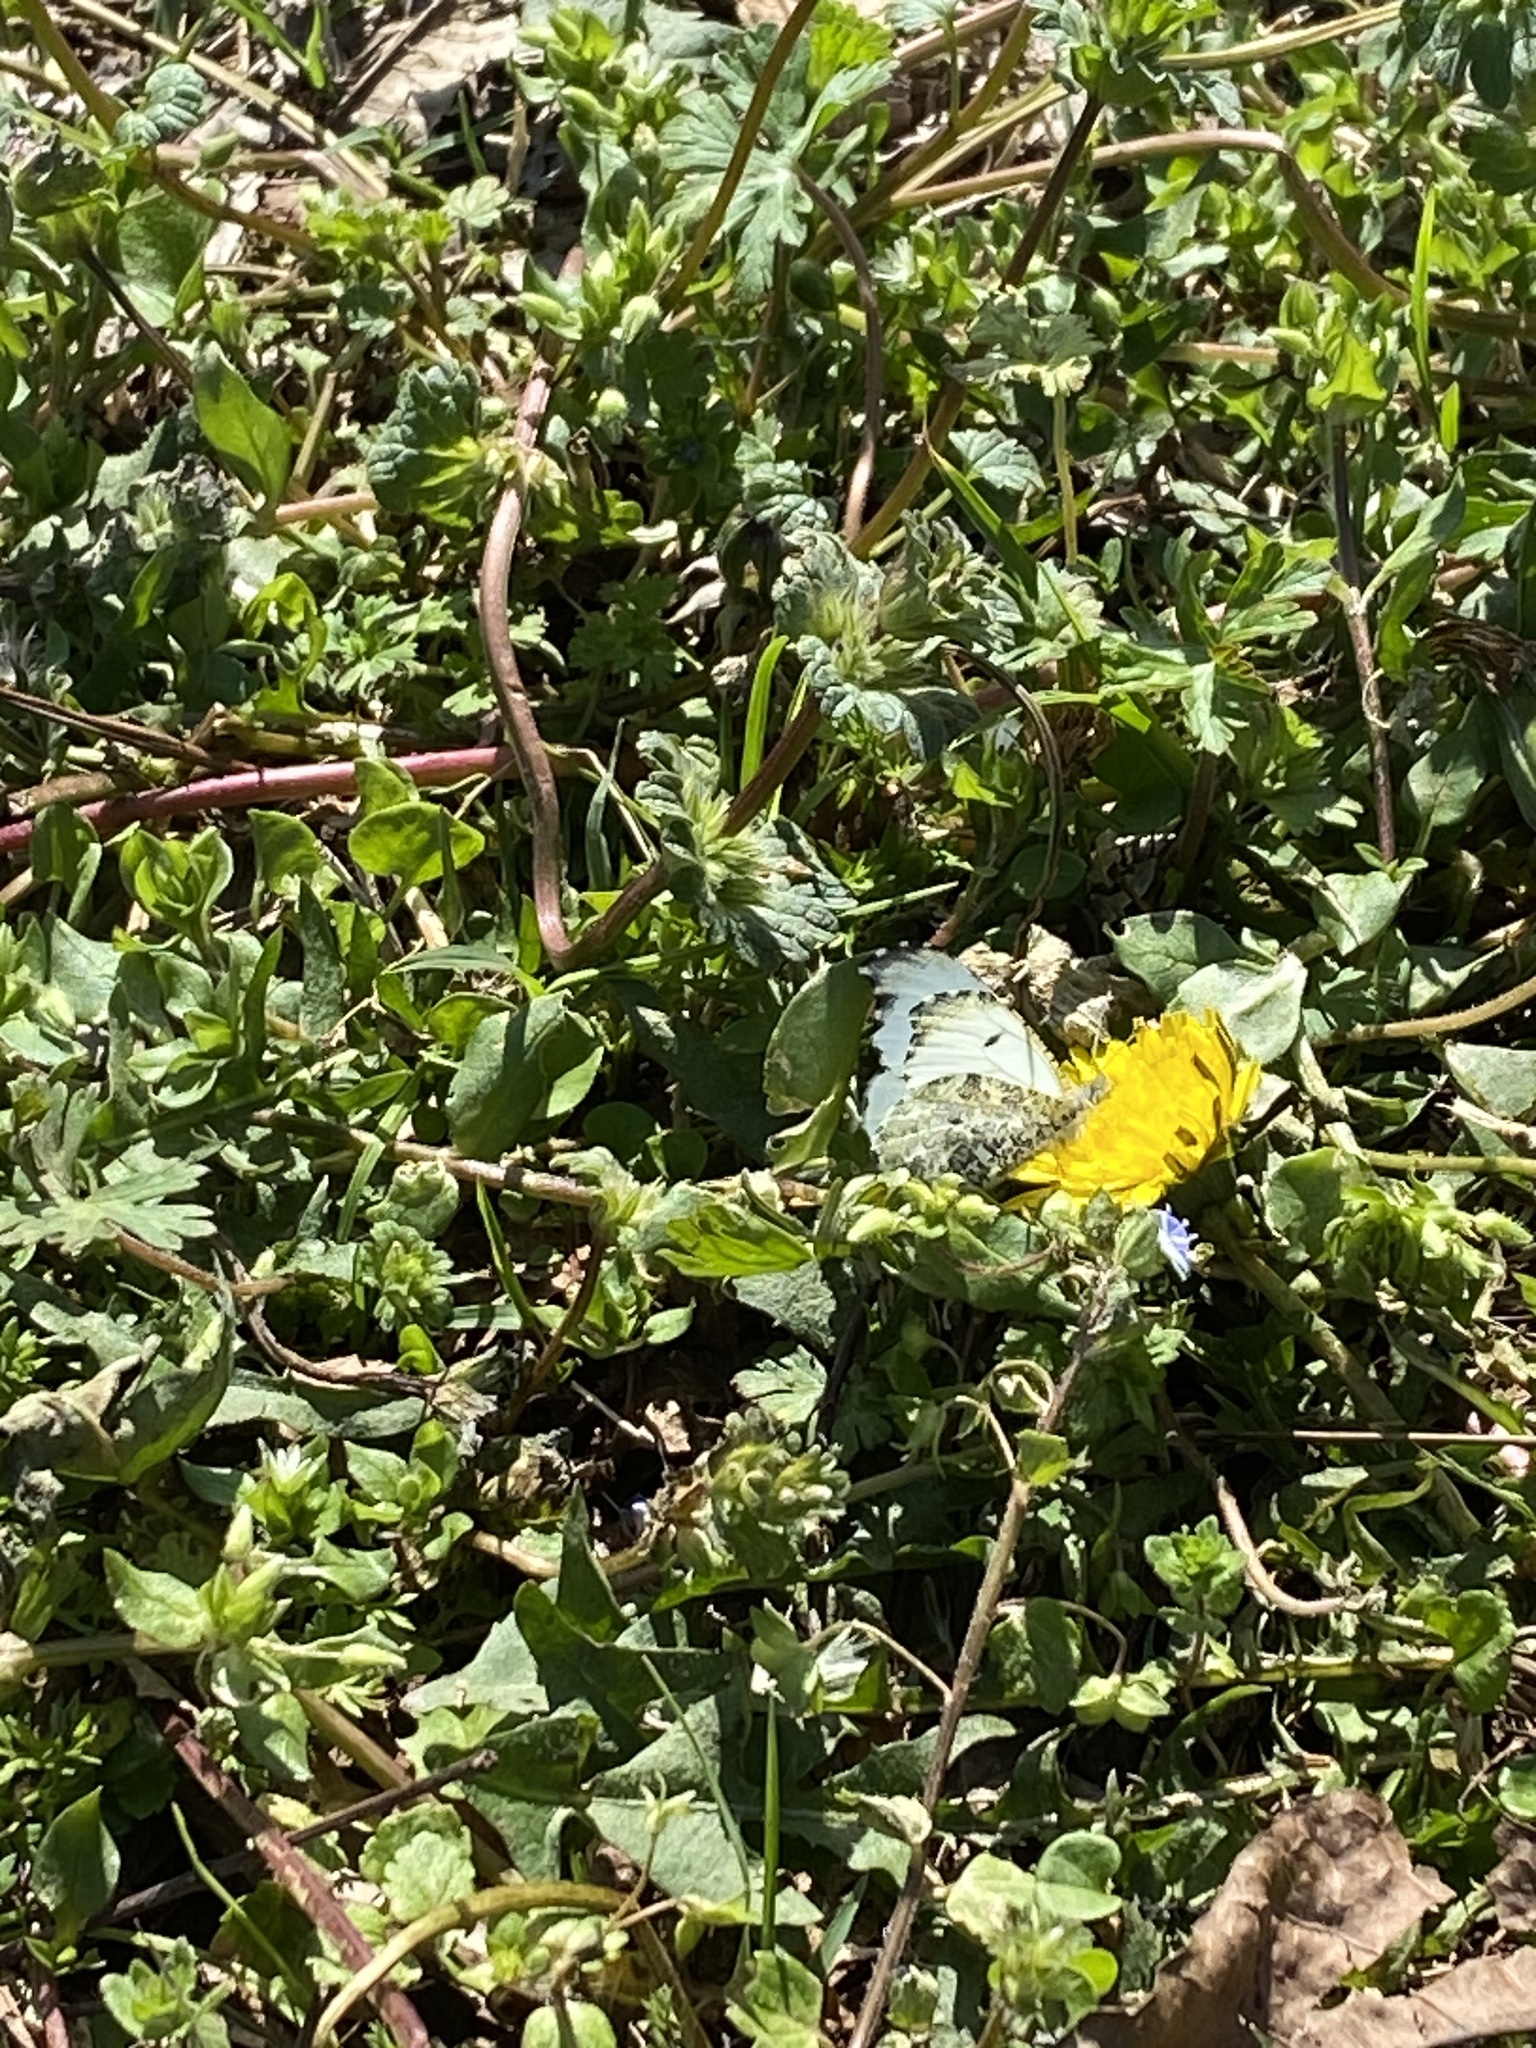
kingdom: Animalia
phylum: Arthropoda
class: Insecta
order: Lepidoptera
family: Pieridae
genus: Anthocharis
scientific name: Anthocharis midea
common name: Falcate orangetip
